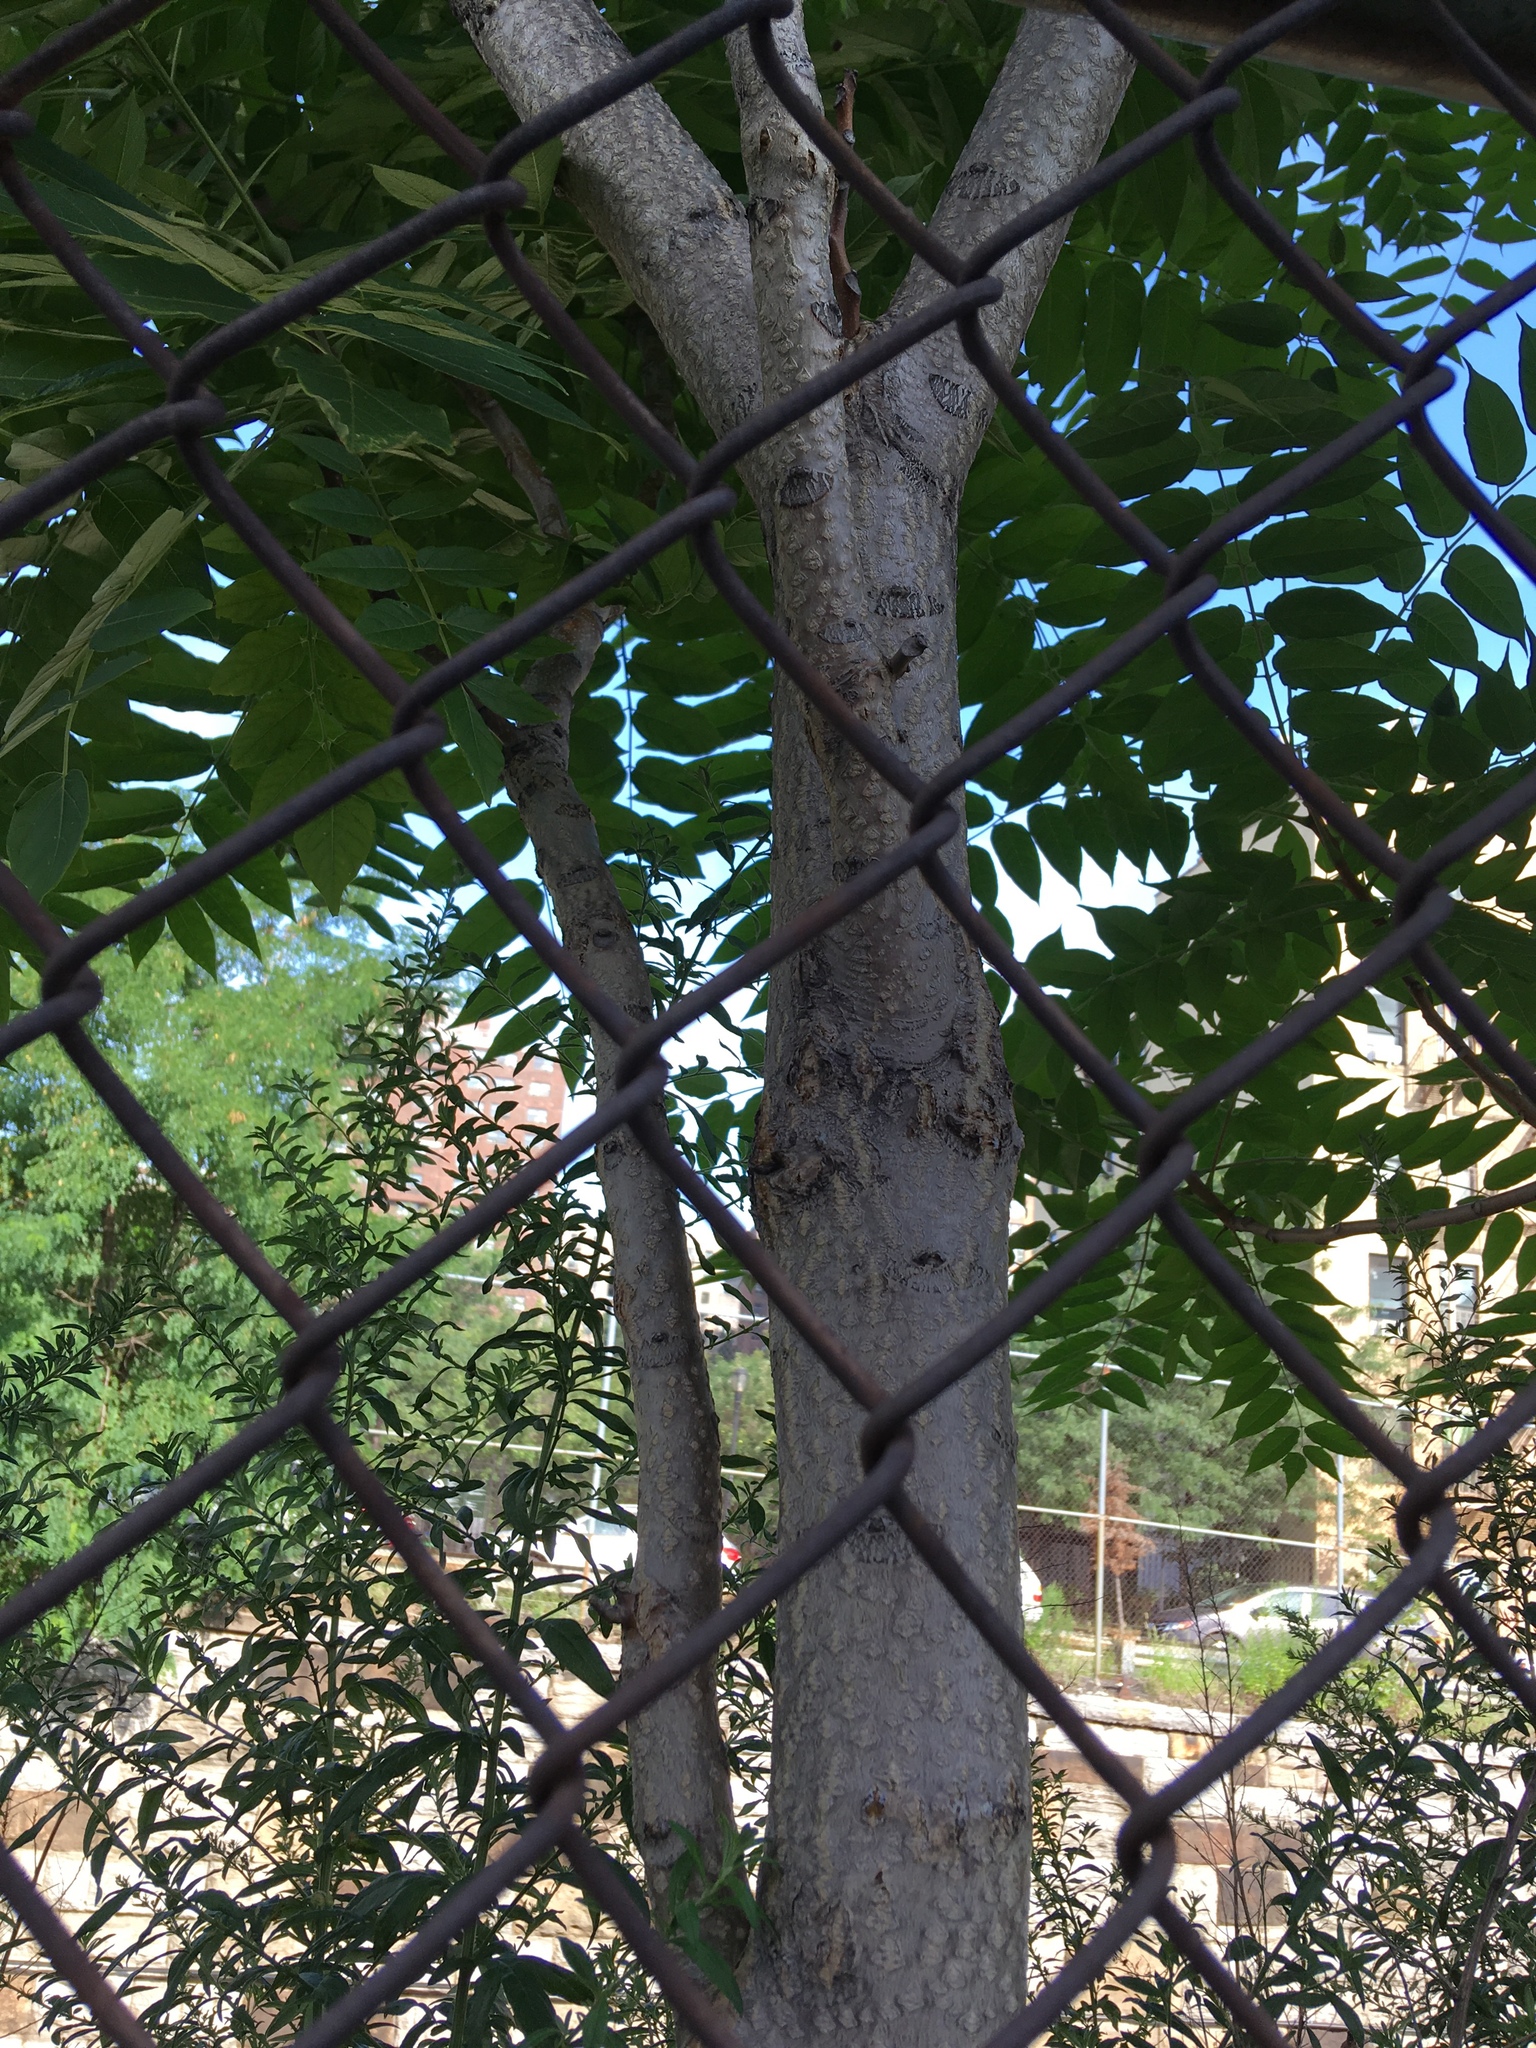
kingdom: Plantae
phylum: Tracheophyta
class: Magnoliopsida
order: Sapindales
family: Simaroubaceae
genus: Ailanthus
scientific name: Ailanthus altissima
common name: Tree-of-heaven
